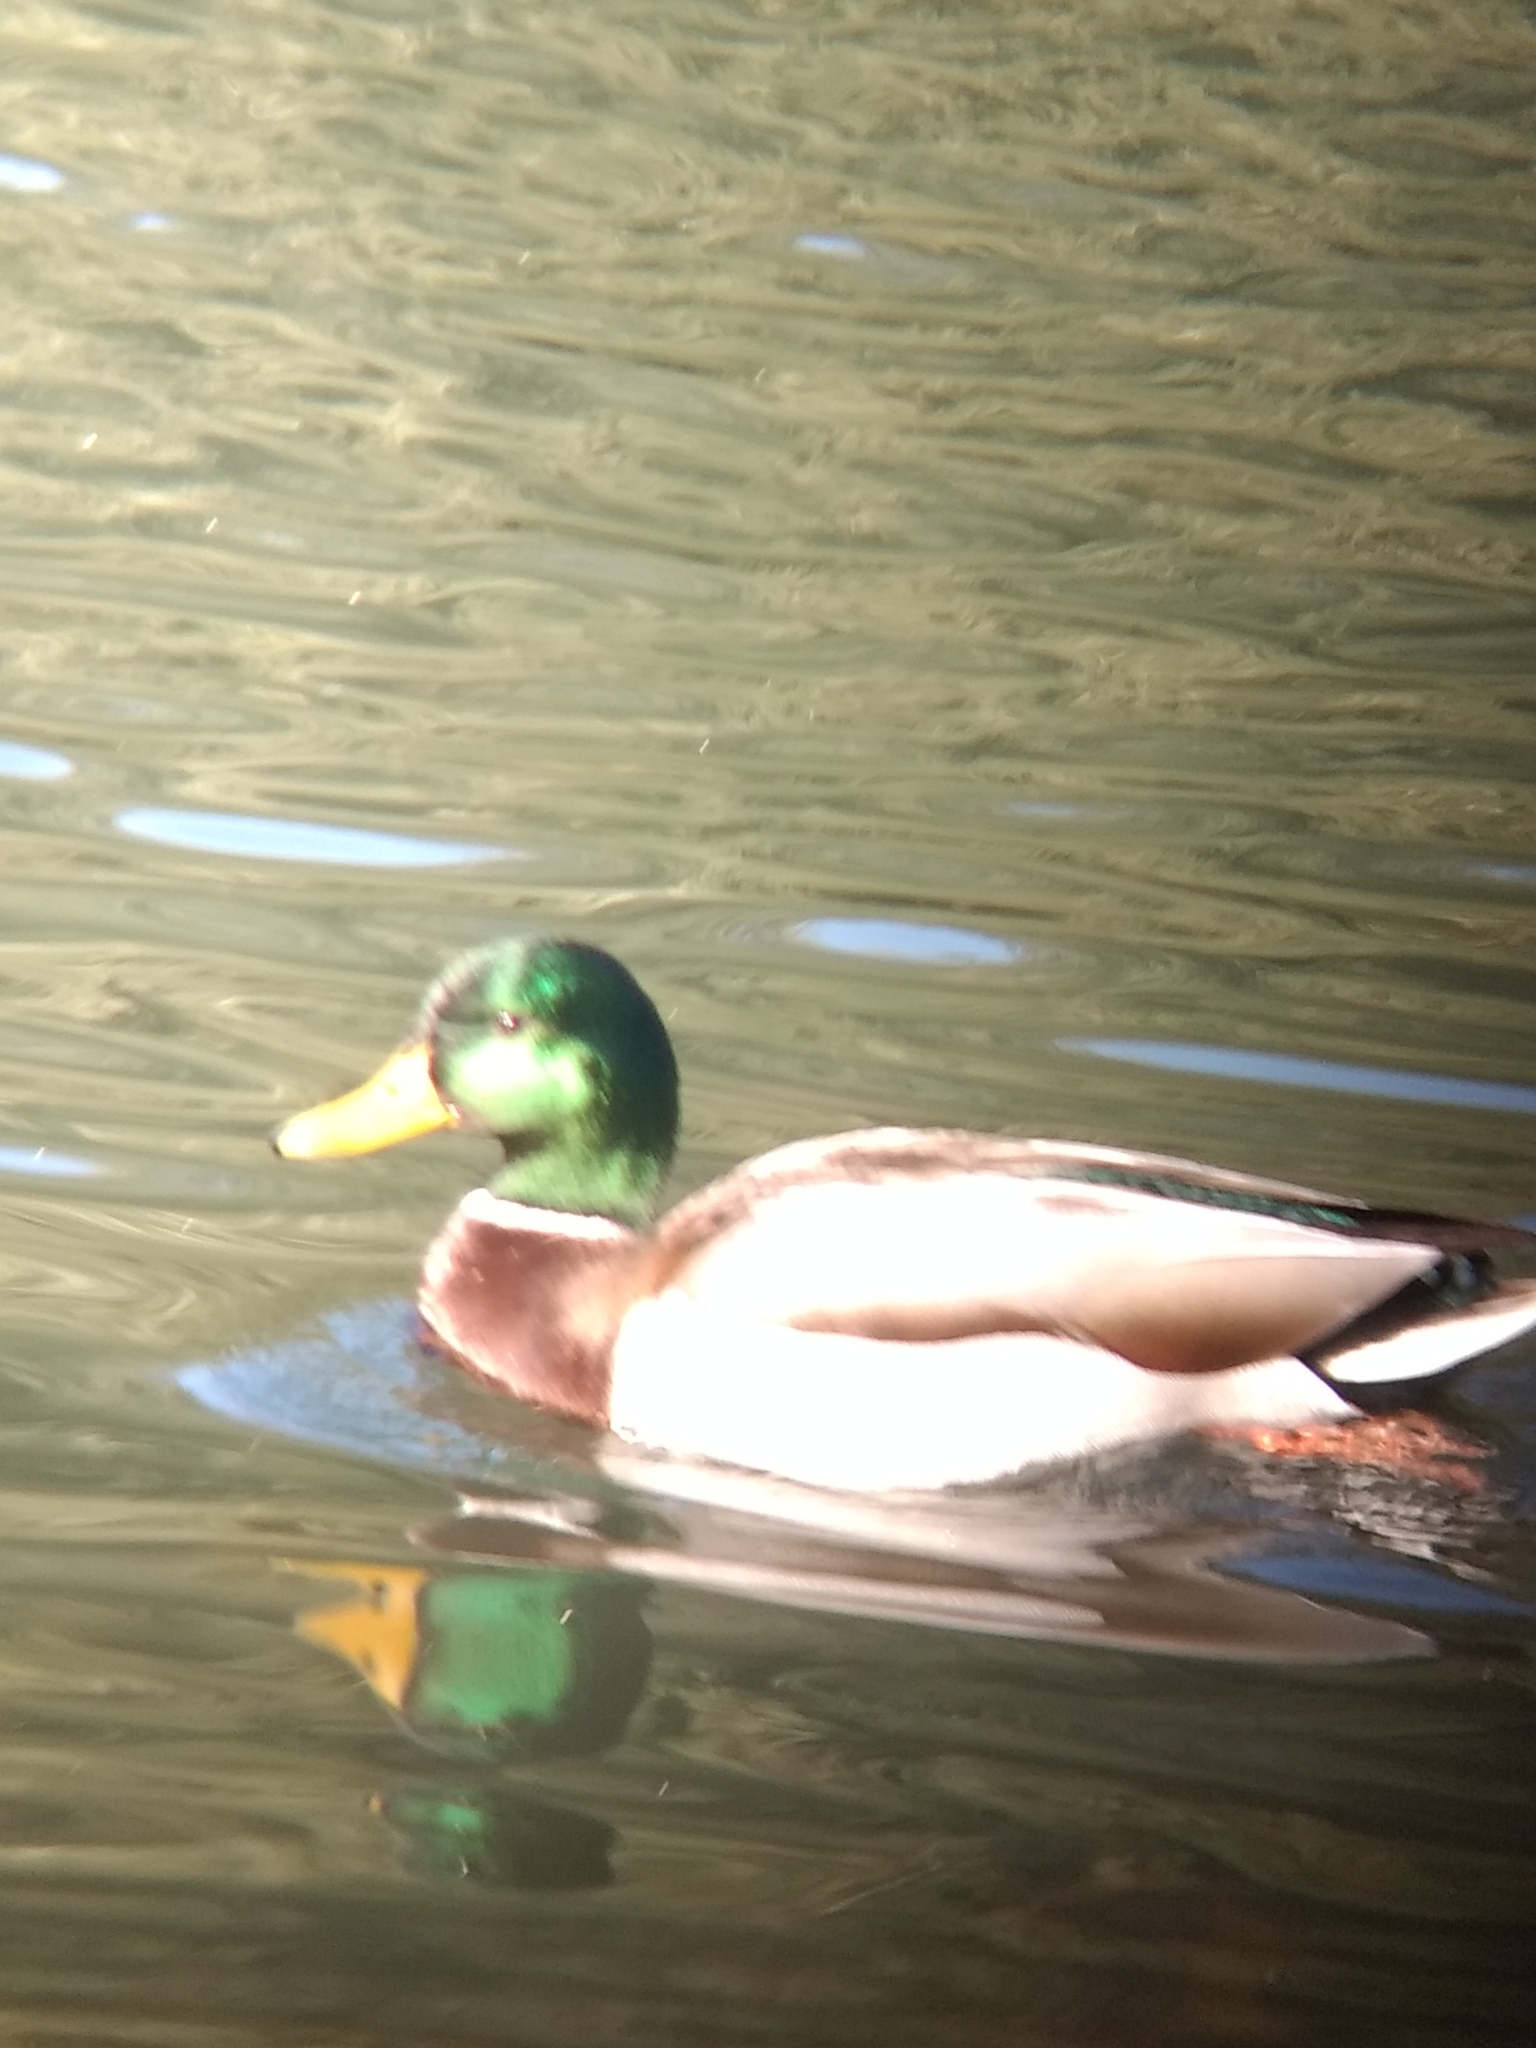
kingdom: Animalia
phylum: Chordata
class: Aves
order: Anseriformes
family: Anatidae
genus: Anas
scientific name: Anas platyrhynchos
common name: Mallard
